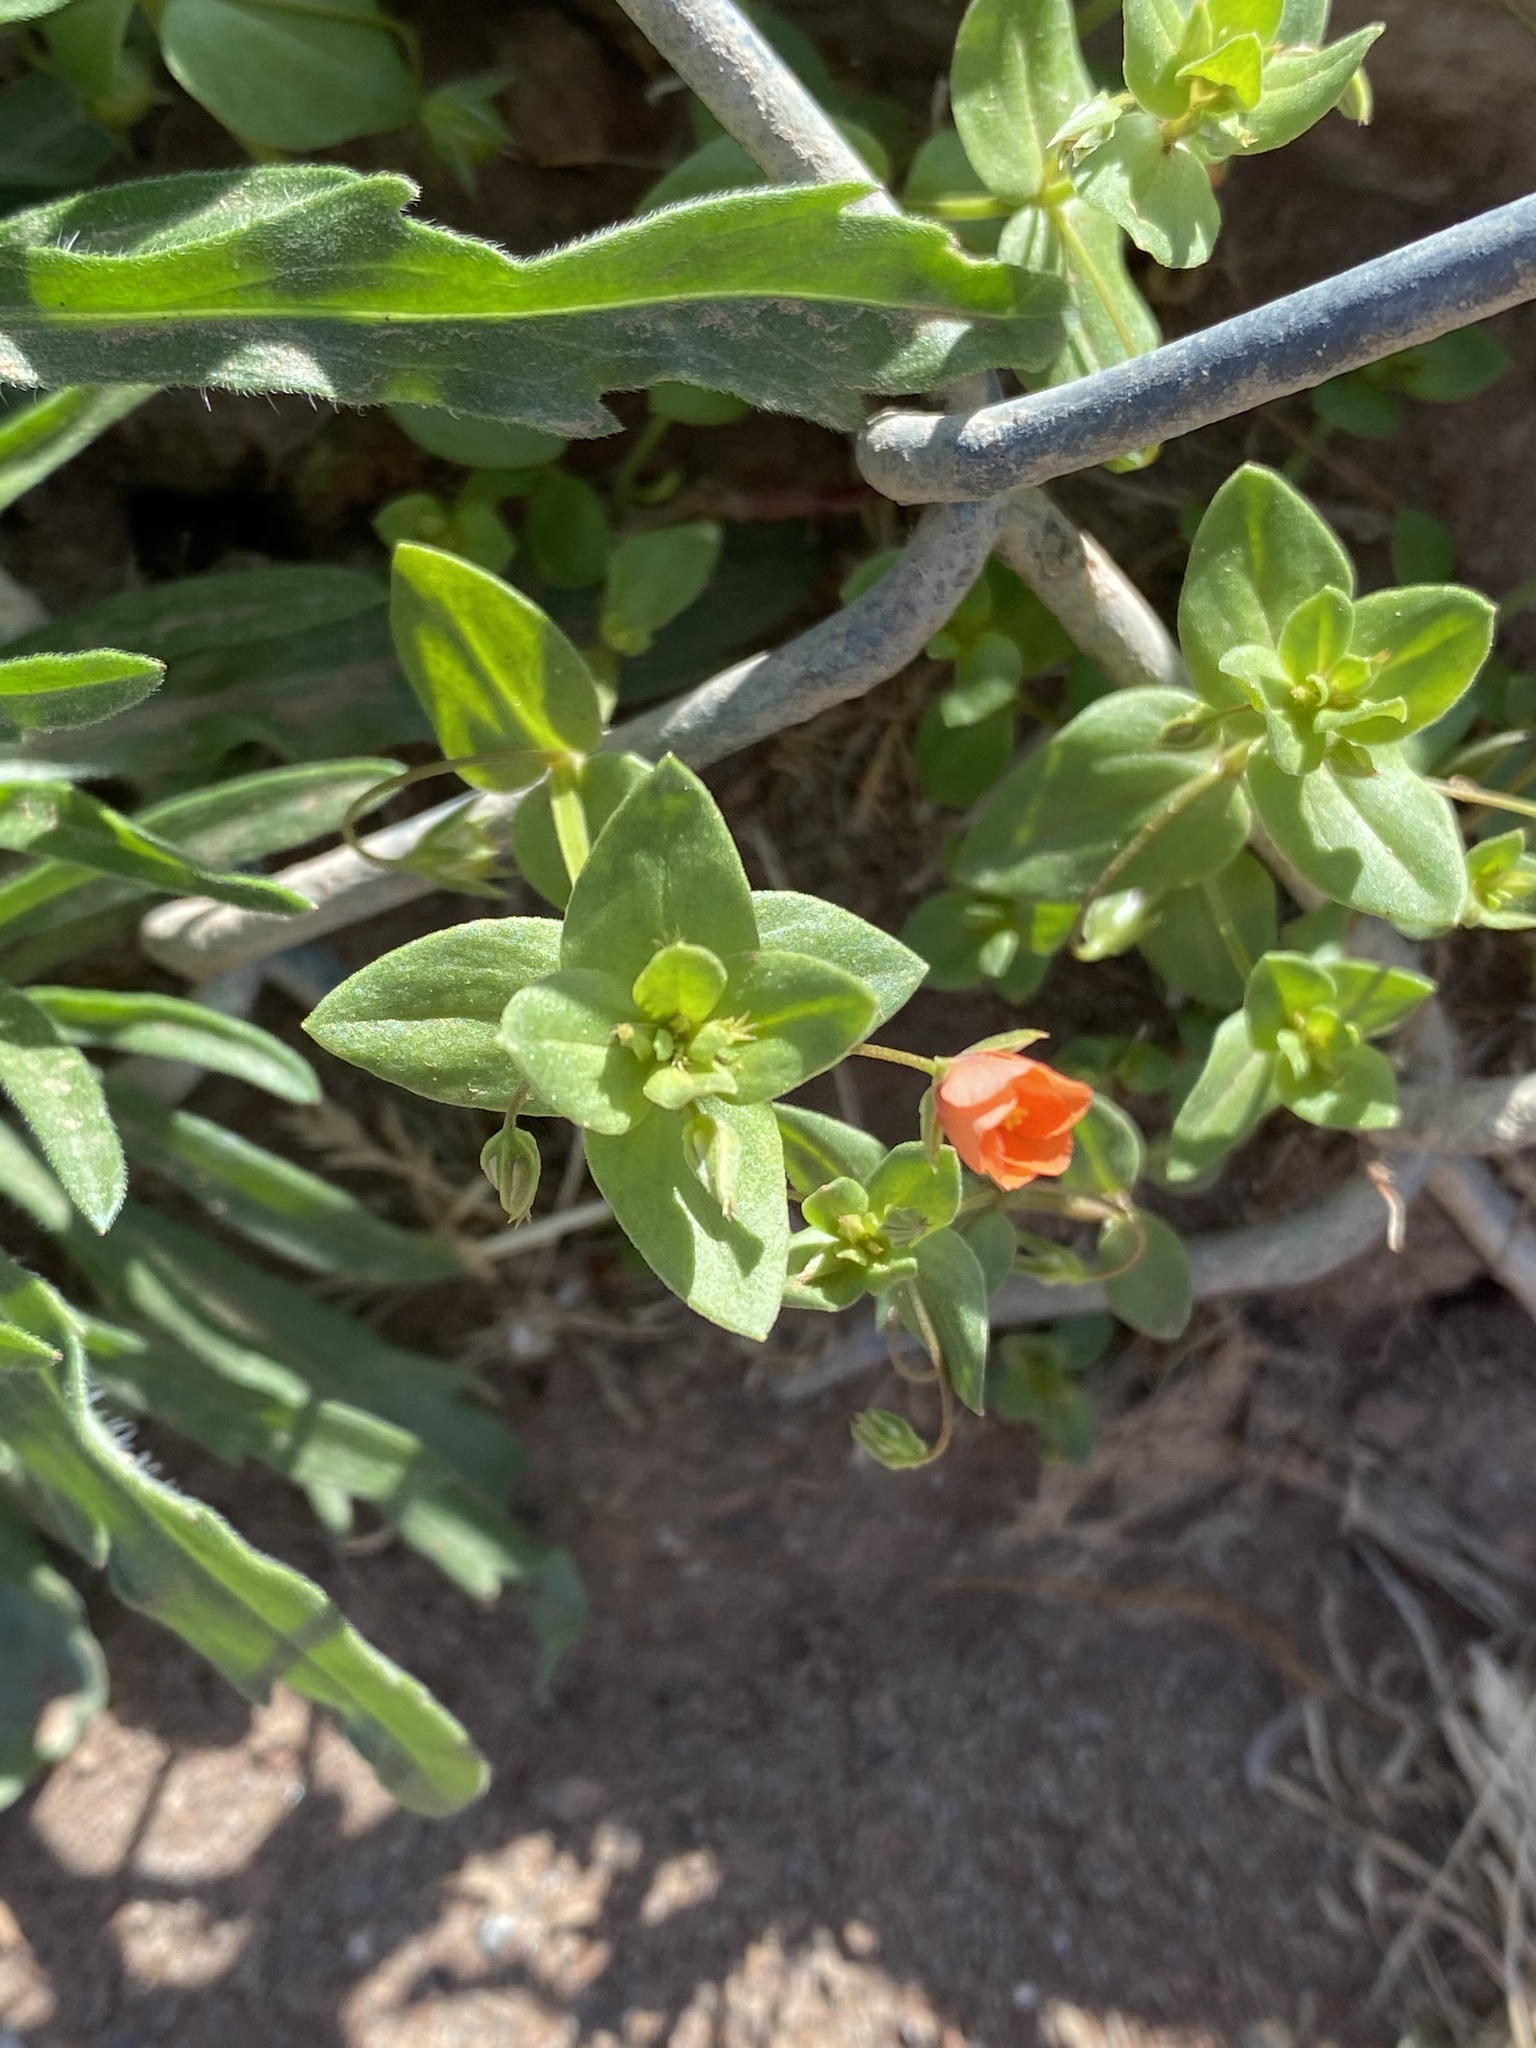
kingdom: Plantae
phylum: Tracheophyta
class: Magnoliopsida
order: Ericales
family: Primulaceae
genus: Lysimachia
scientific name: Lysimachia arvensis
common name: Scarlet pimpernel
